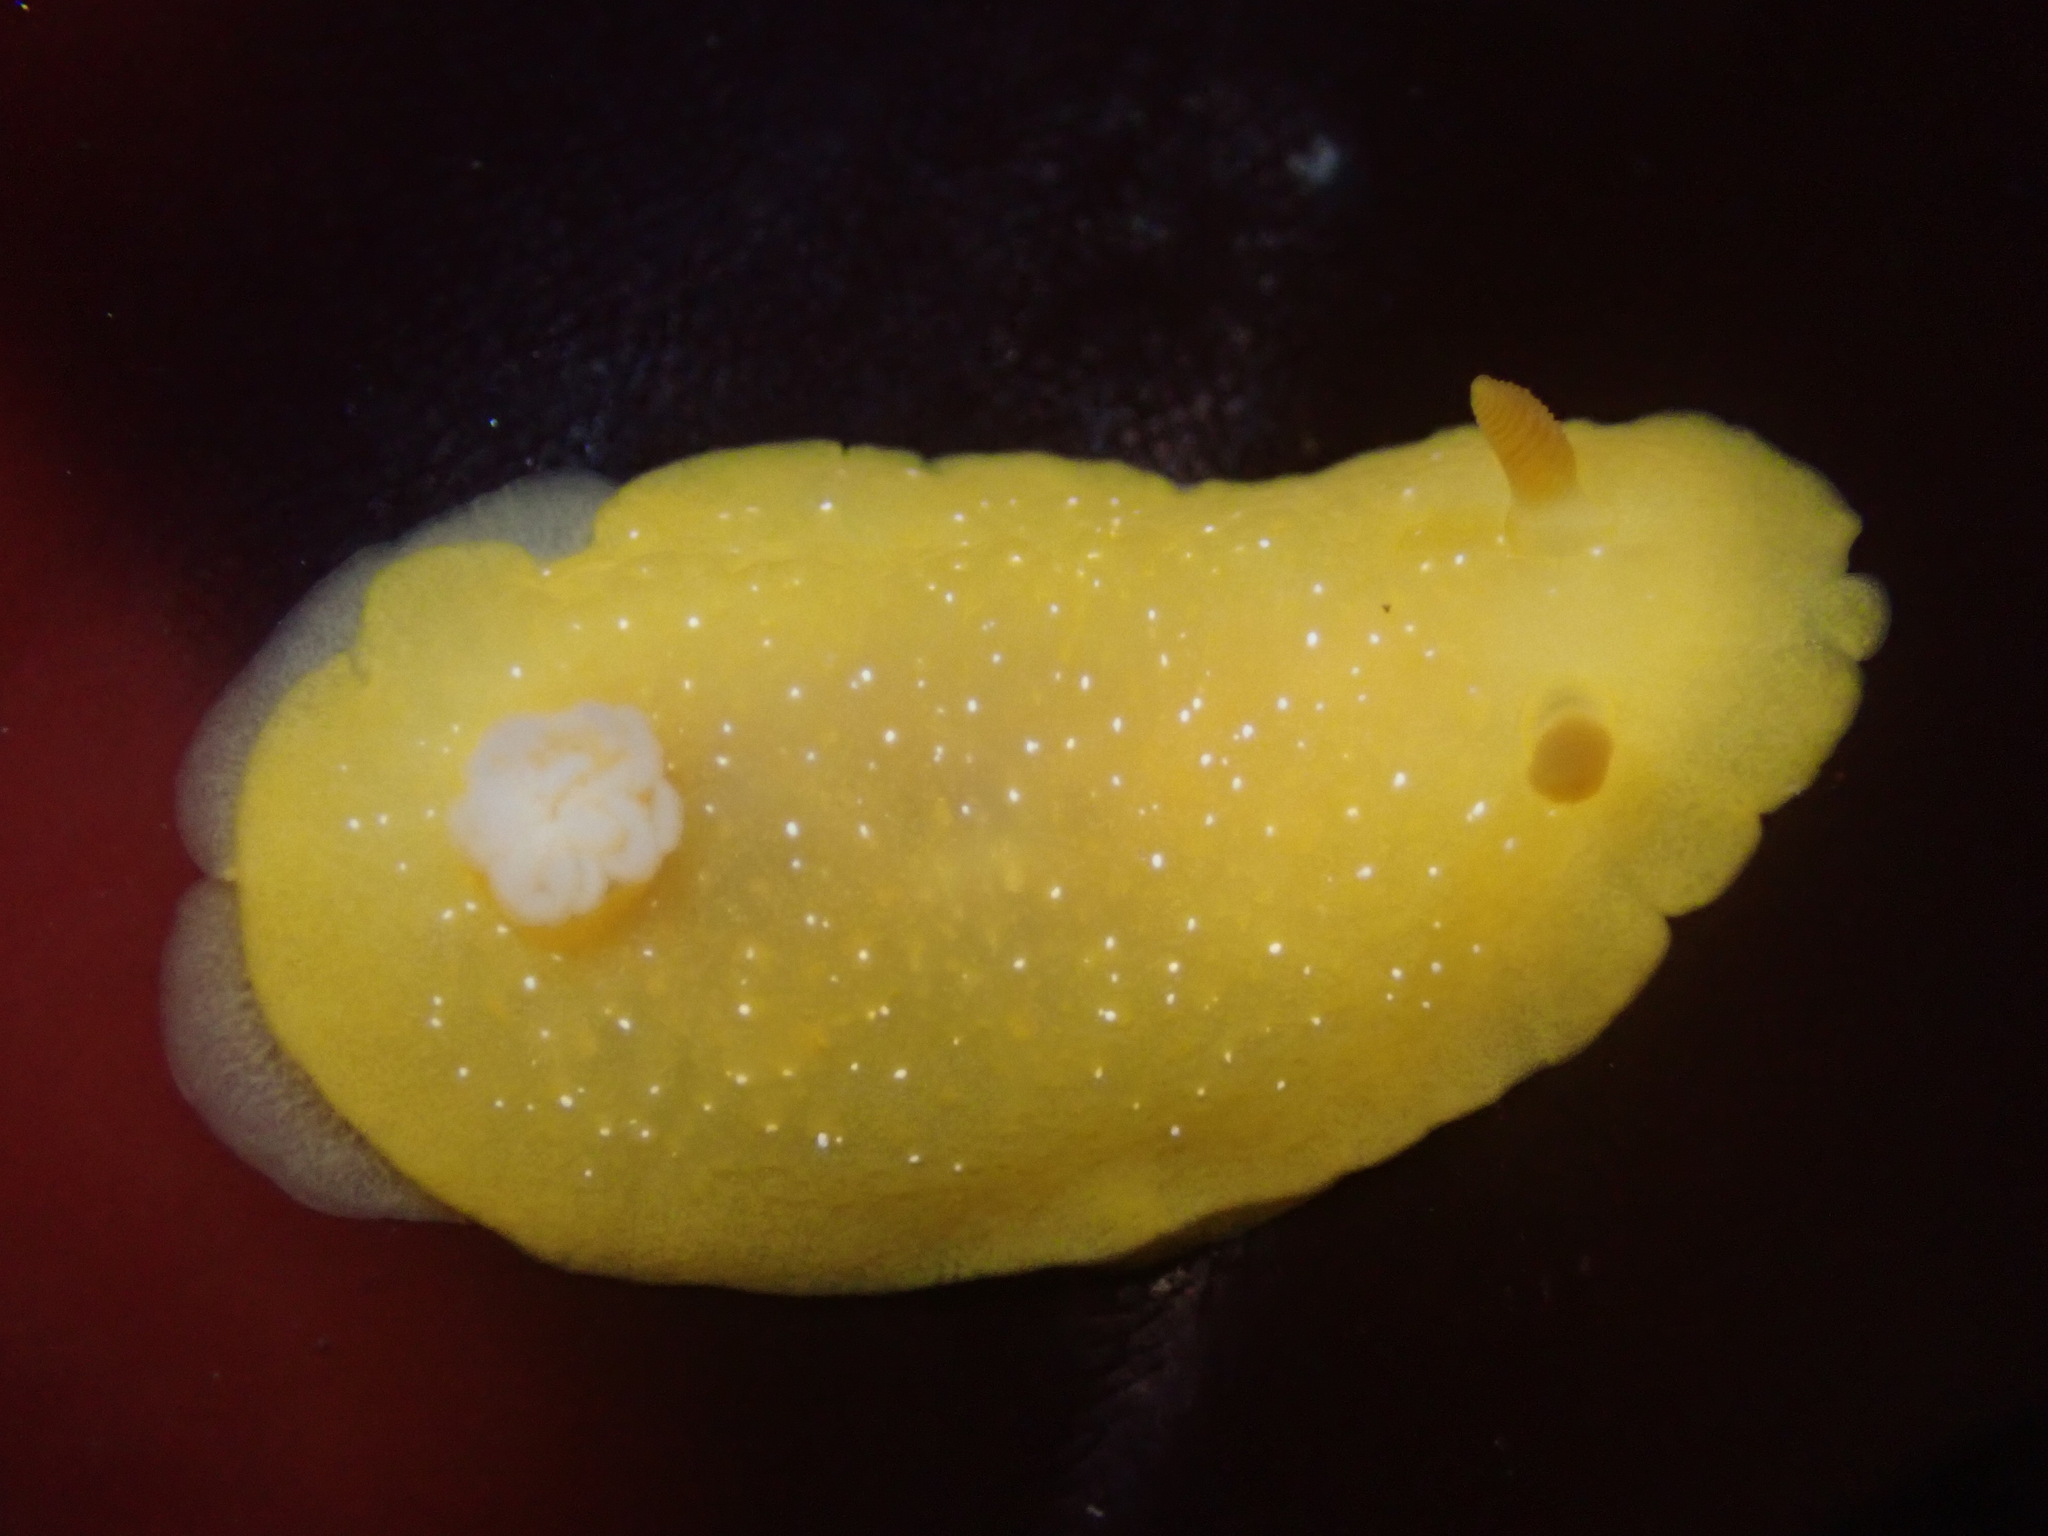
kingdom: Animalia
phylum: Mollusca
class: Gastropoda
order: Nudibranchia
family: Dendrodorididae
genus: Doriopsilla
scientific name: Doriopsilla fulva
